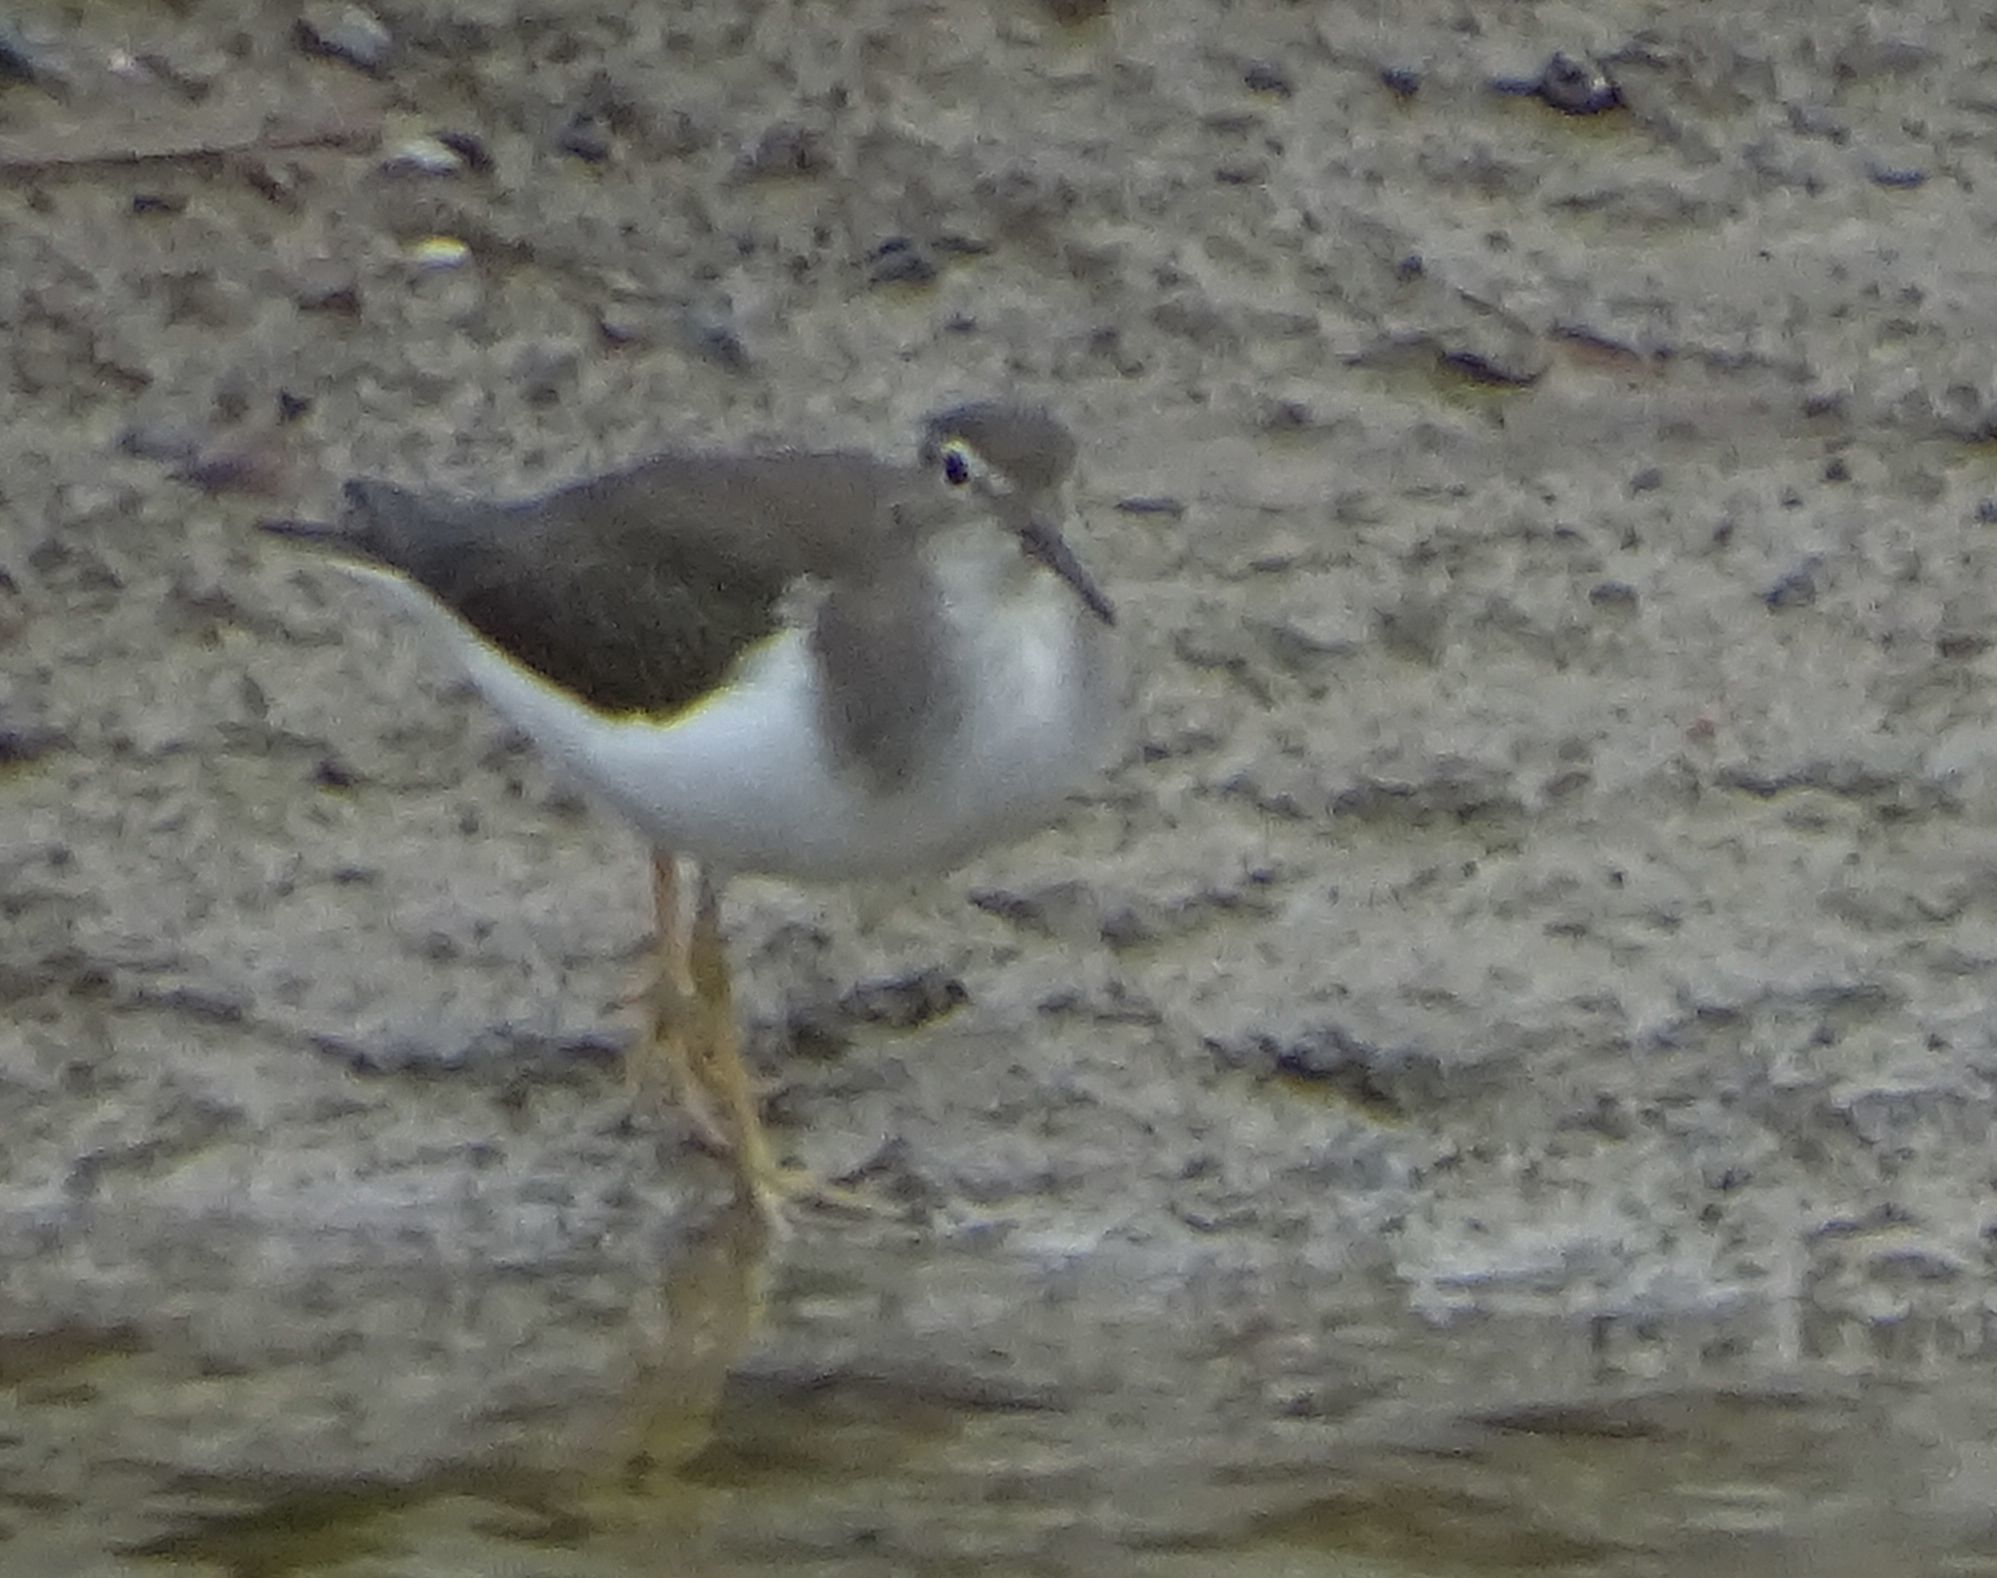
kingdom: Animalia
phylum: Chordata
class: Aves
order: Charadriiformes
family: Scolopacidae
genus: Actitis
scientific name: Actitis macularius
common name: Spotted sandpiper
